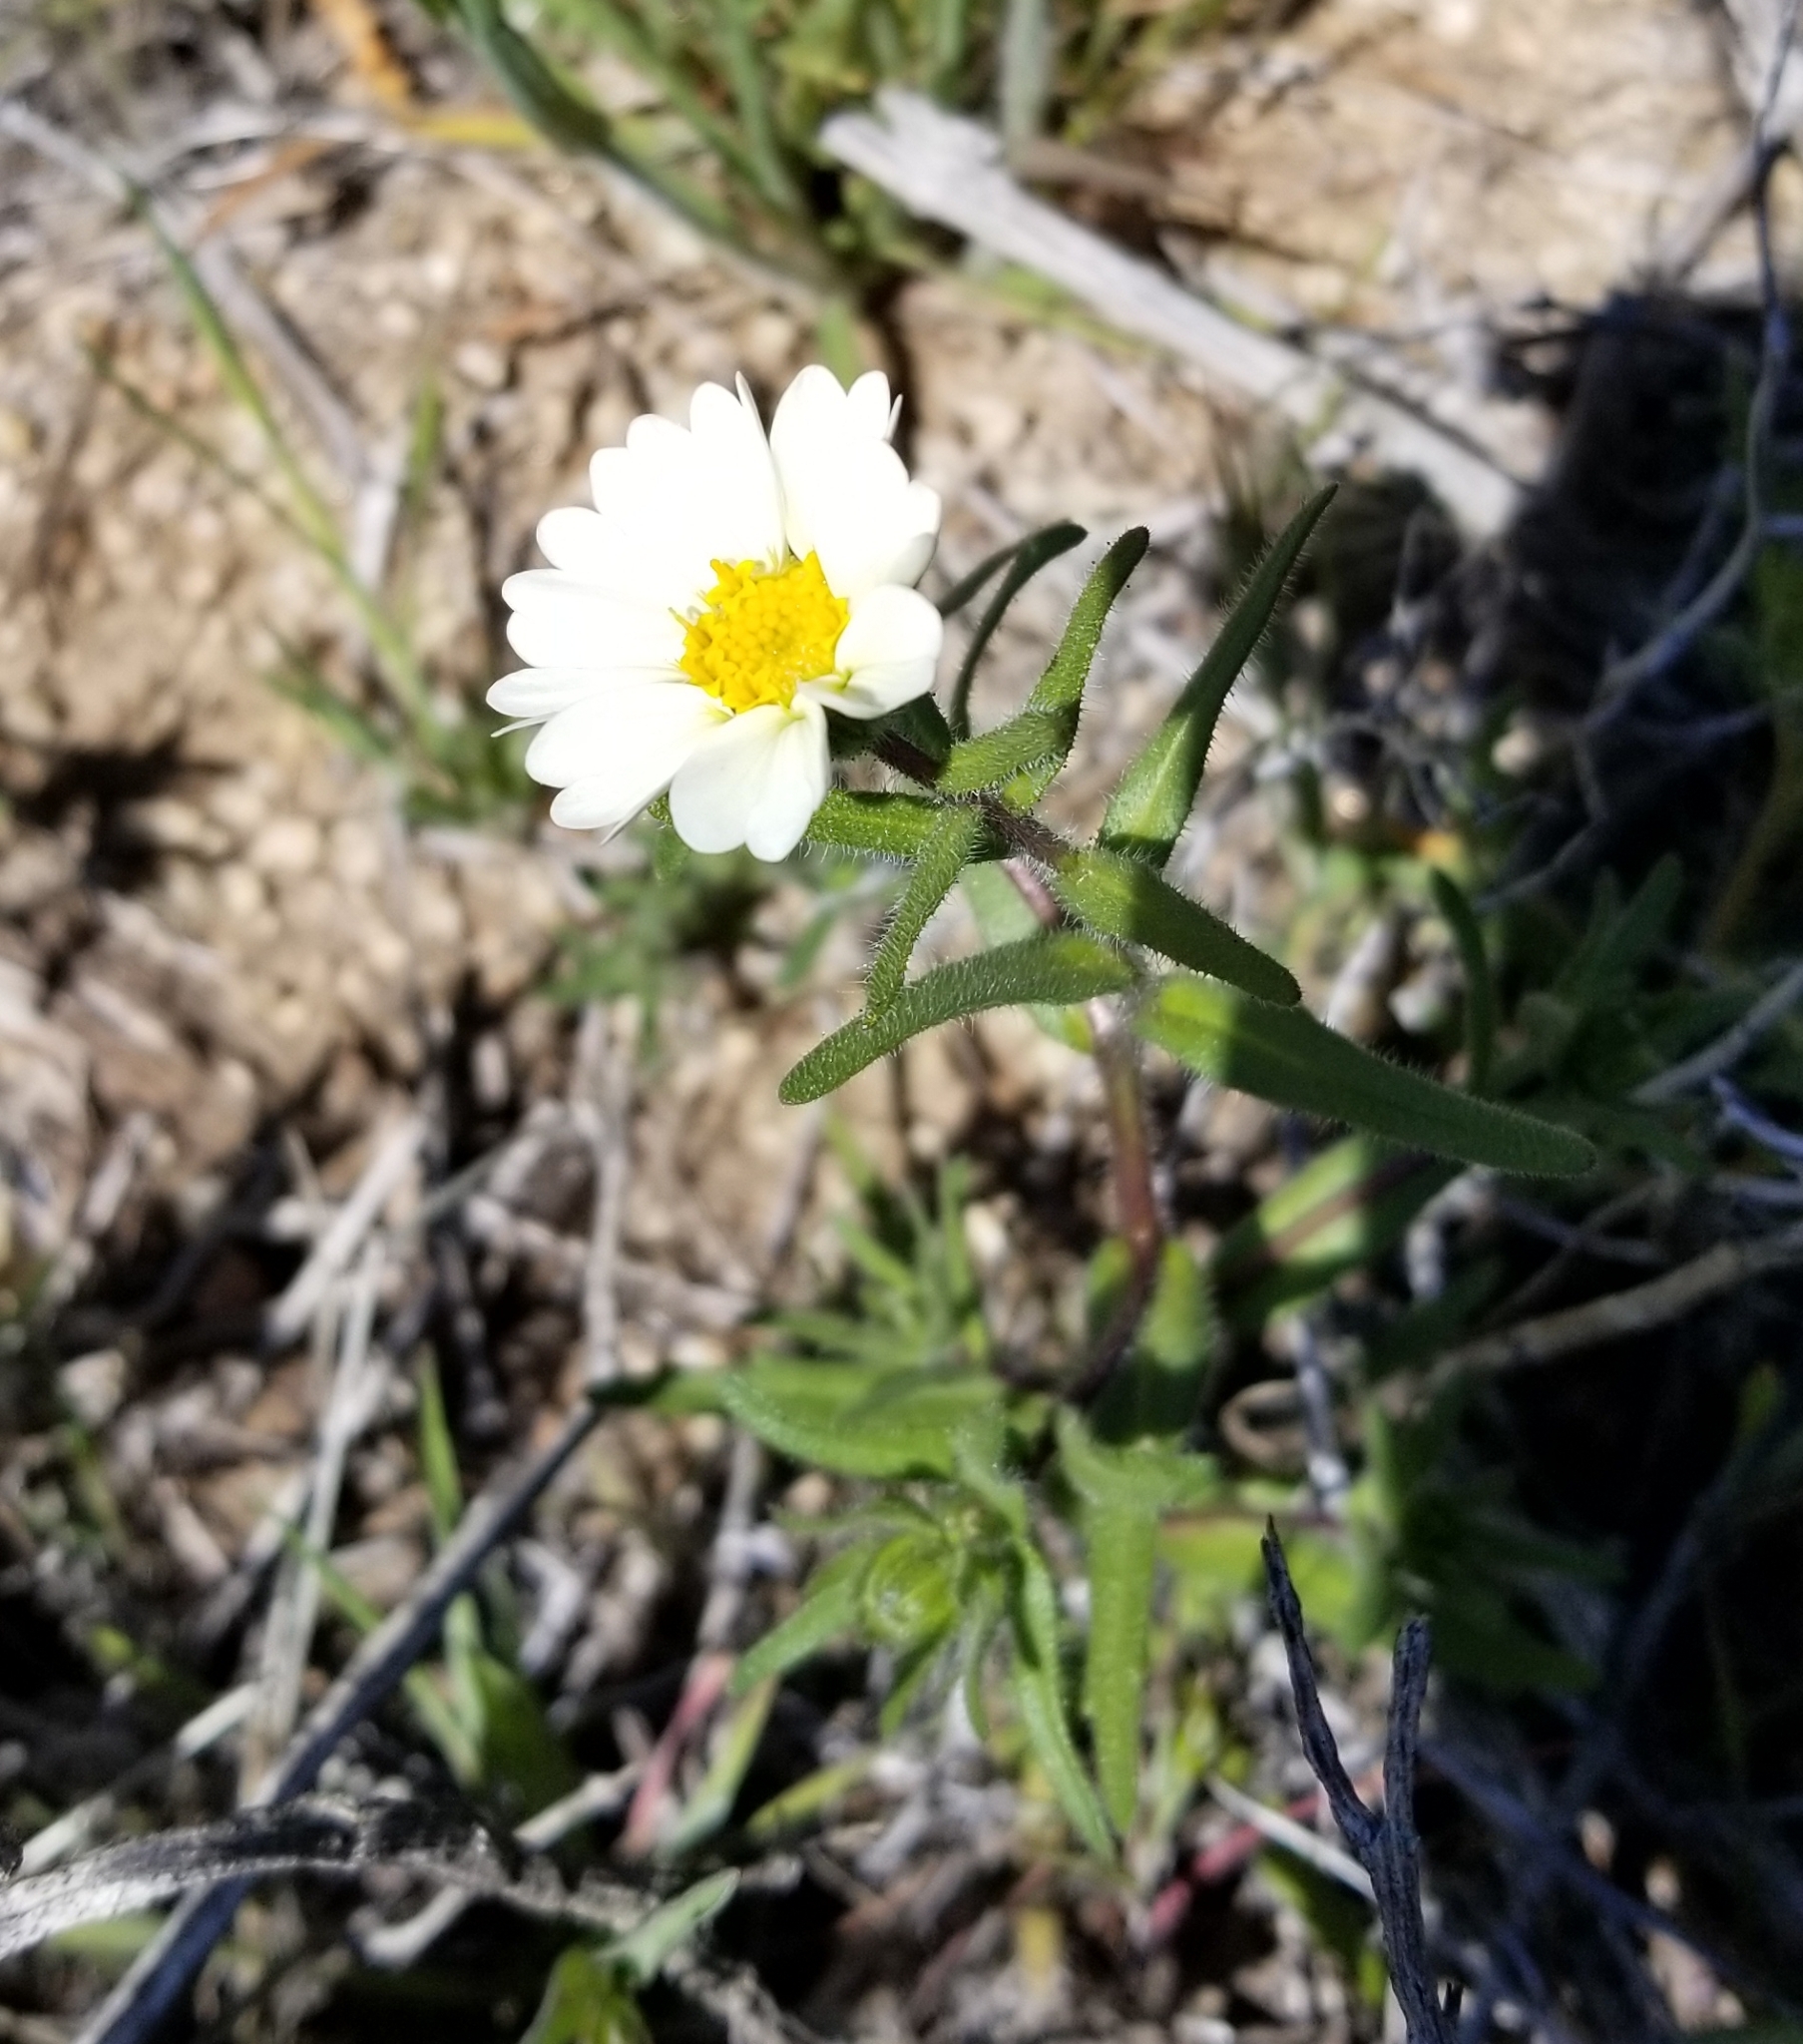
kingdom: Plantae
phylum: Tracheophyta
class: Magnoliopsida
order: Asterales
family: Asteraceae
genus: Layia
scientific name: Layia glandulosa
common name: White layia
